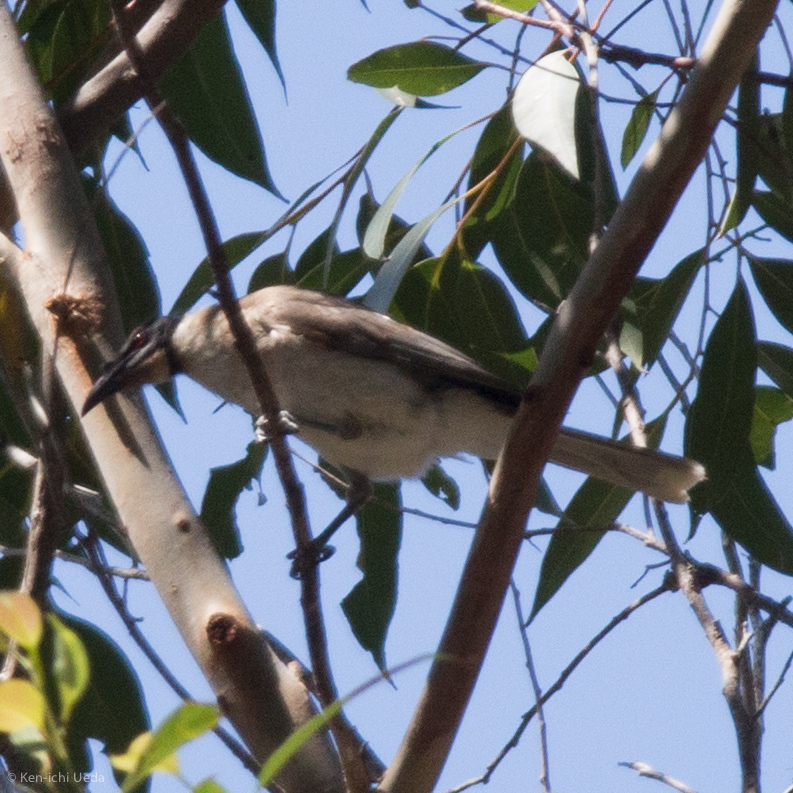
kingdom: Animalia
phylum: Chordata
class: Aves
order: Passeriformes
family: Meliphagidae
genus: Philemon
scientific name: Philemon corniculatus
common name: Noisy friarbird
